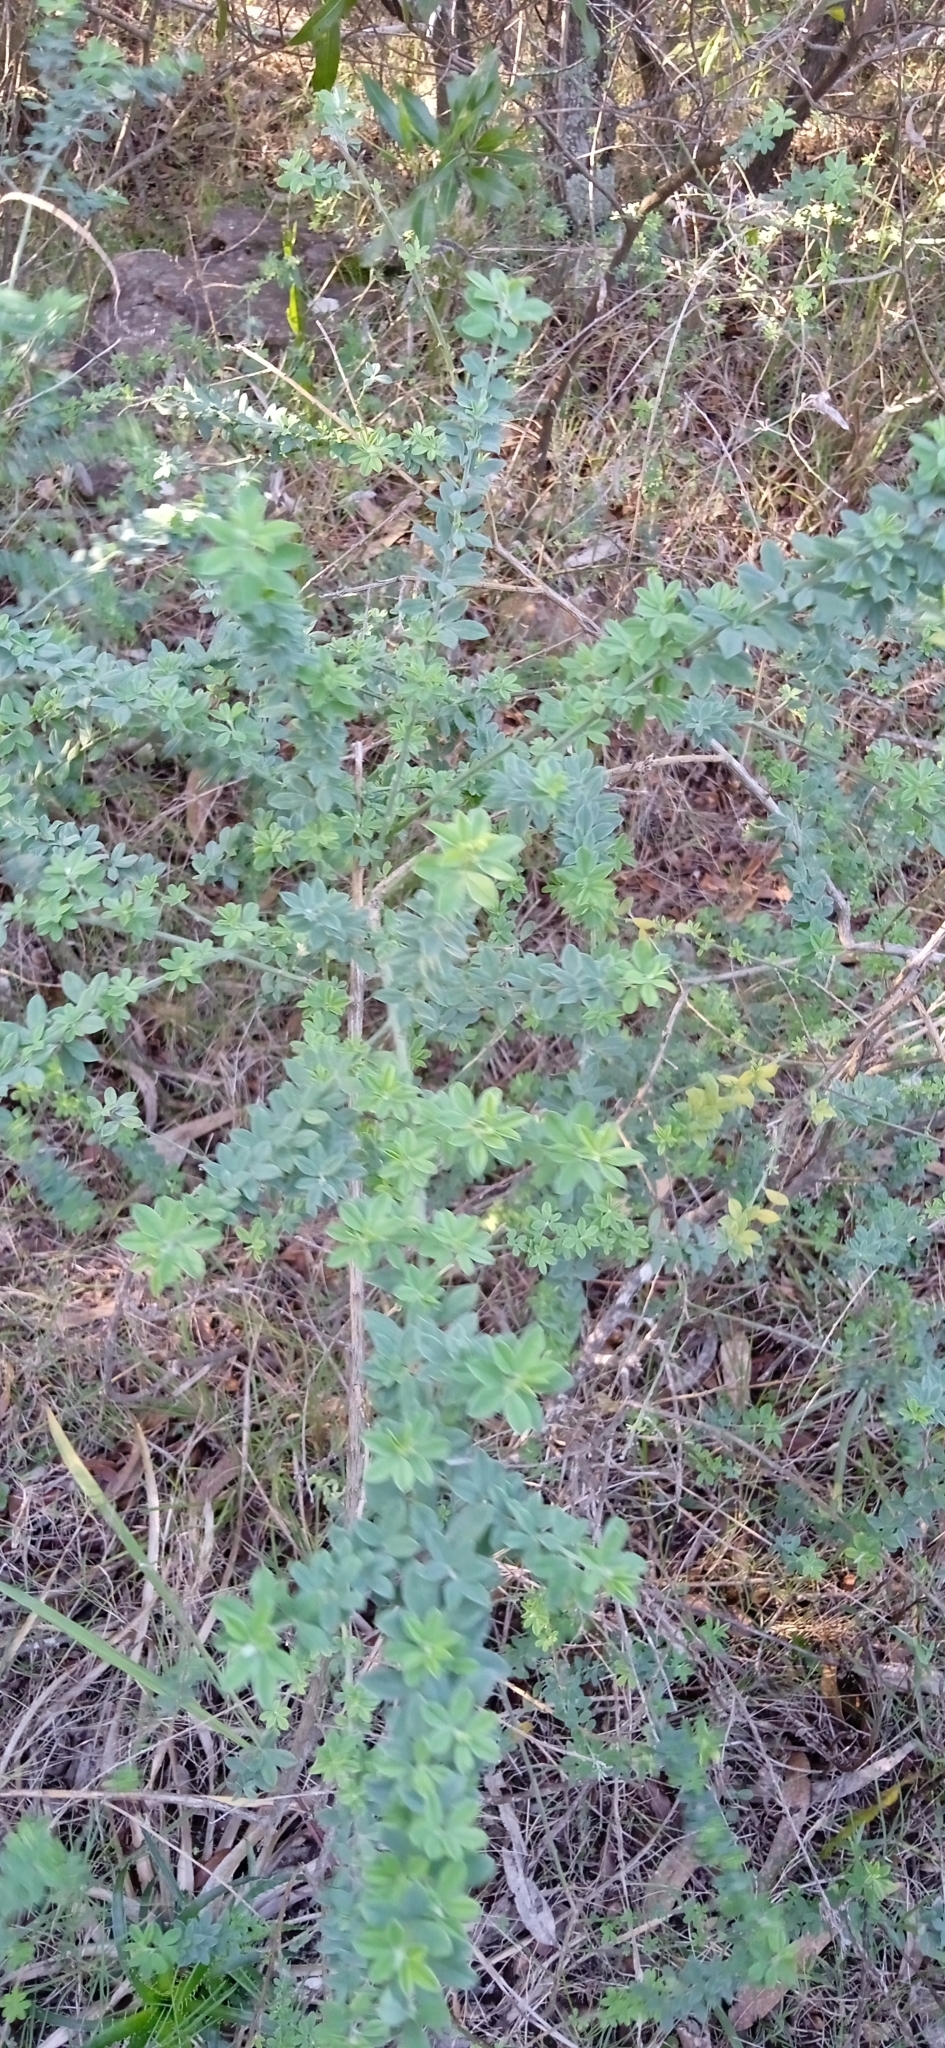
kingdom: Plantae
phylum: Tracheophyta
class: Magnoliopsida
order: Fabales
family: Fabaceae
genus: Genista
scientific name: Genista monspessulana
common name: Montpellier broom
